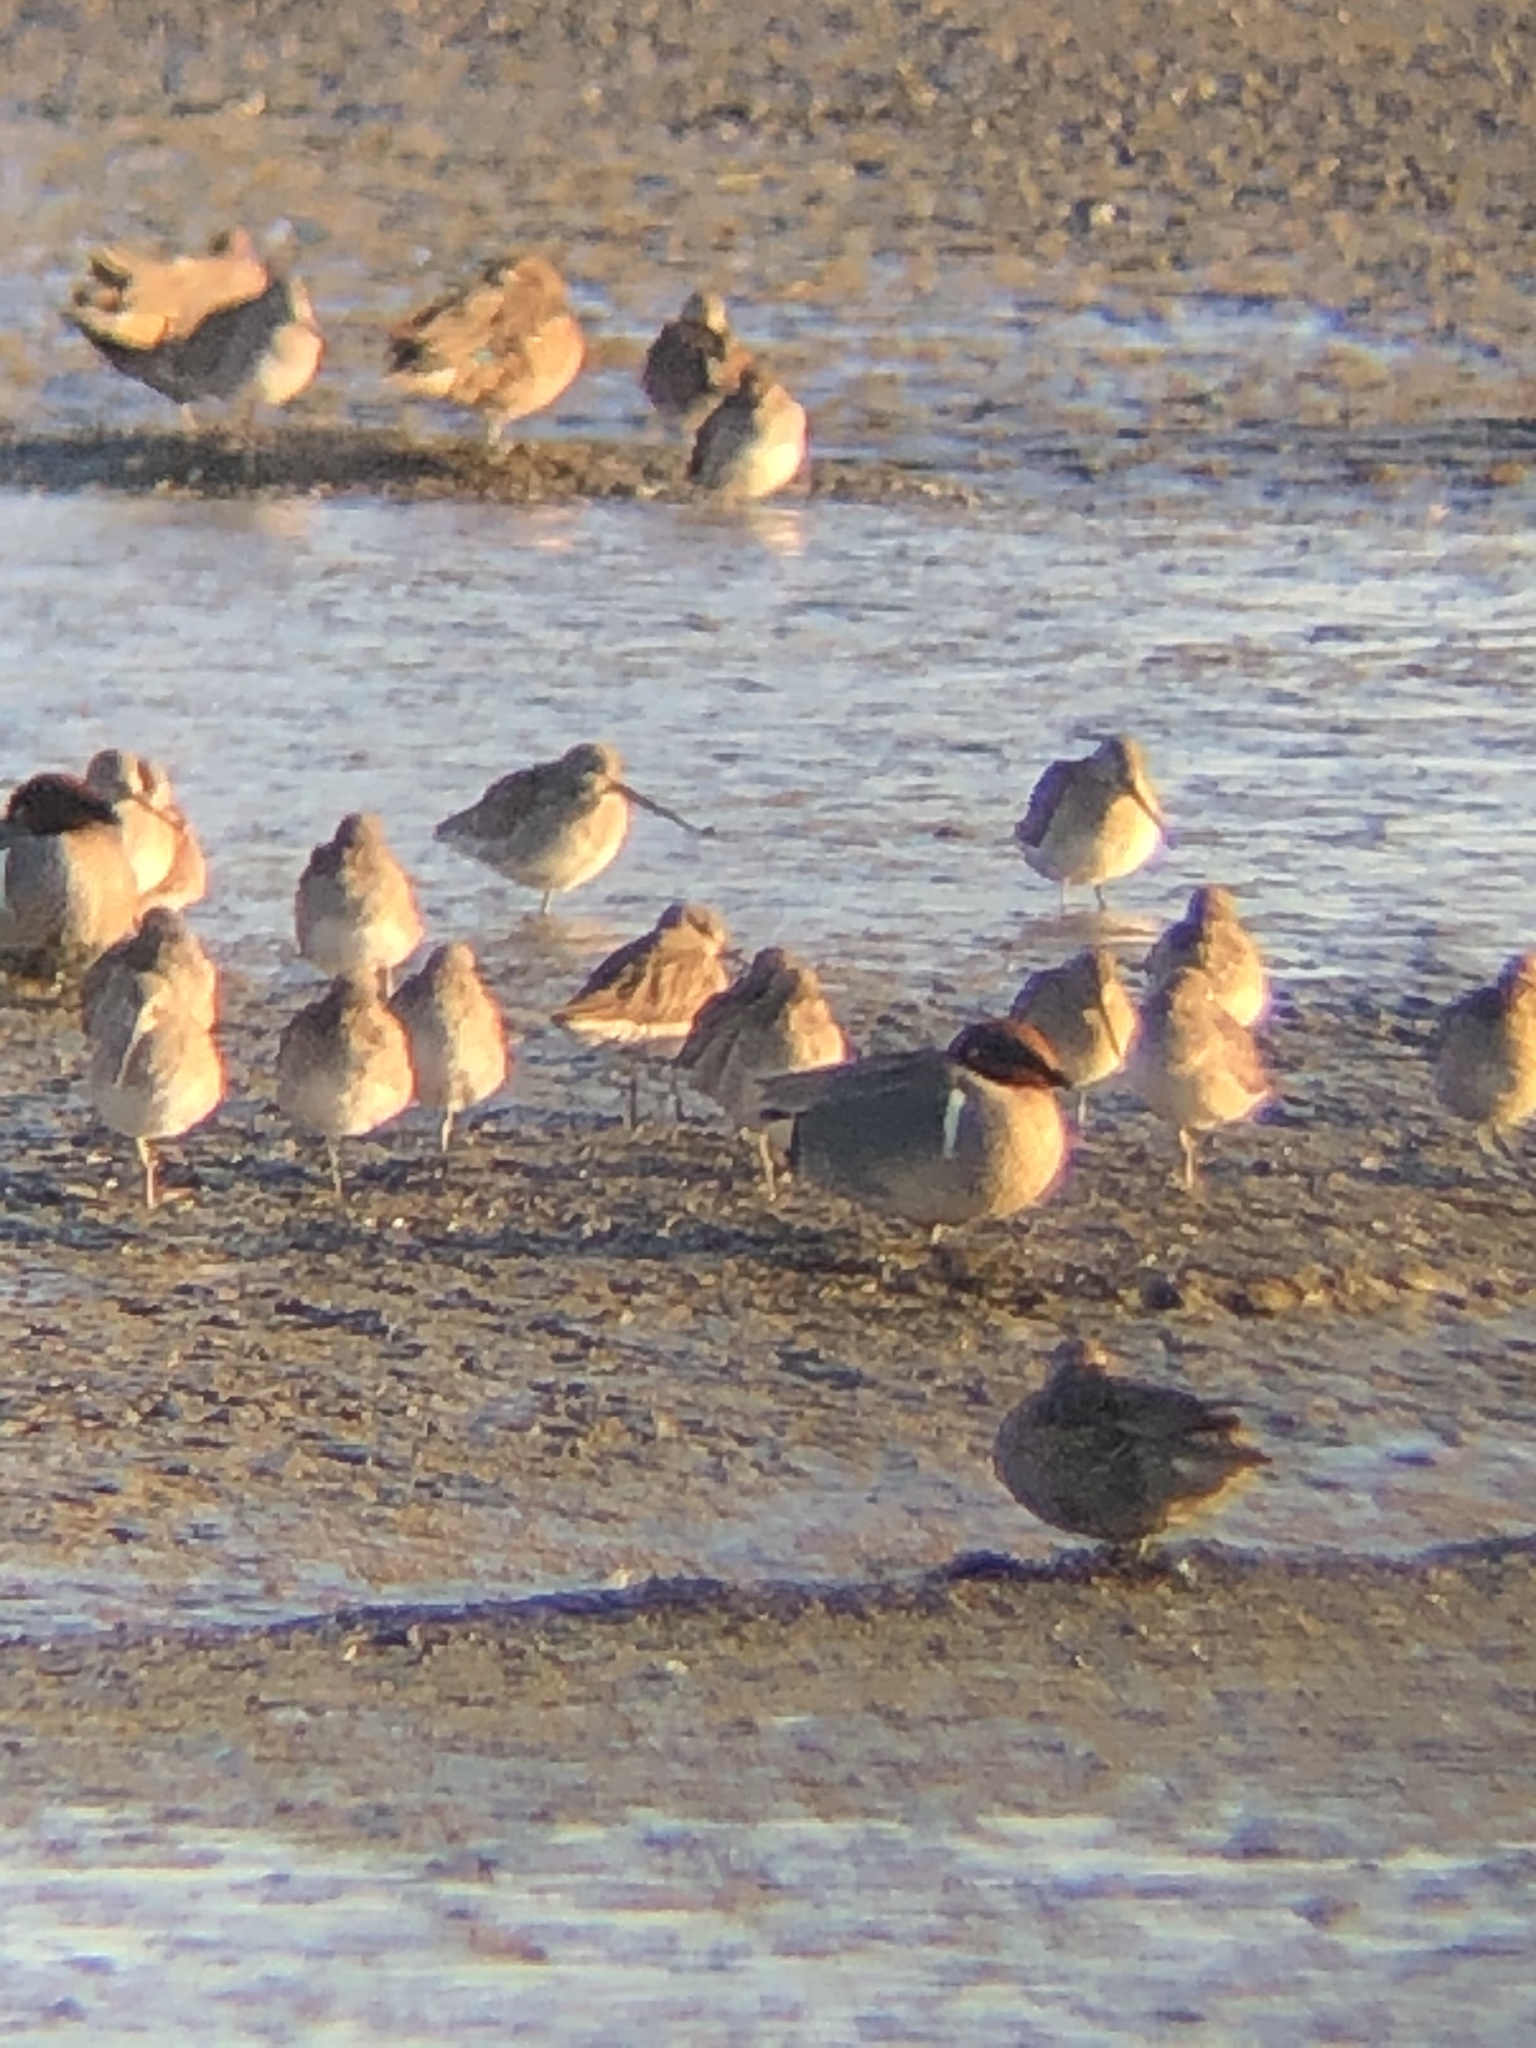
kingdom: Animalia
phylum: Chordata
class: Aves
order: Anseriformes
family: Anatidae
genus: Anas
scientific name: Anas crecca
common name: Eurasian teal
